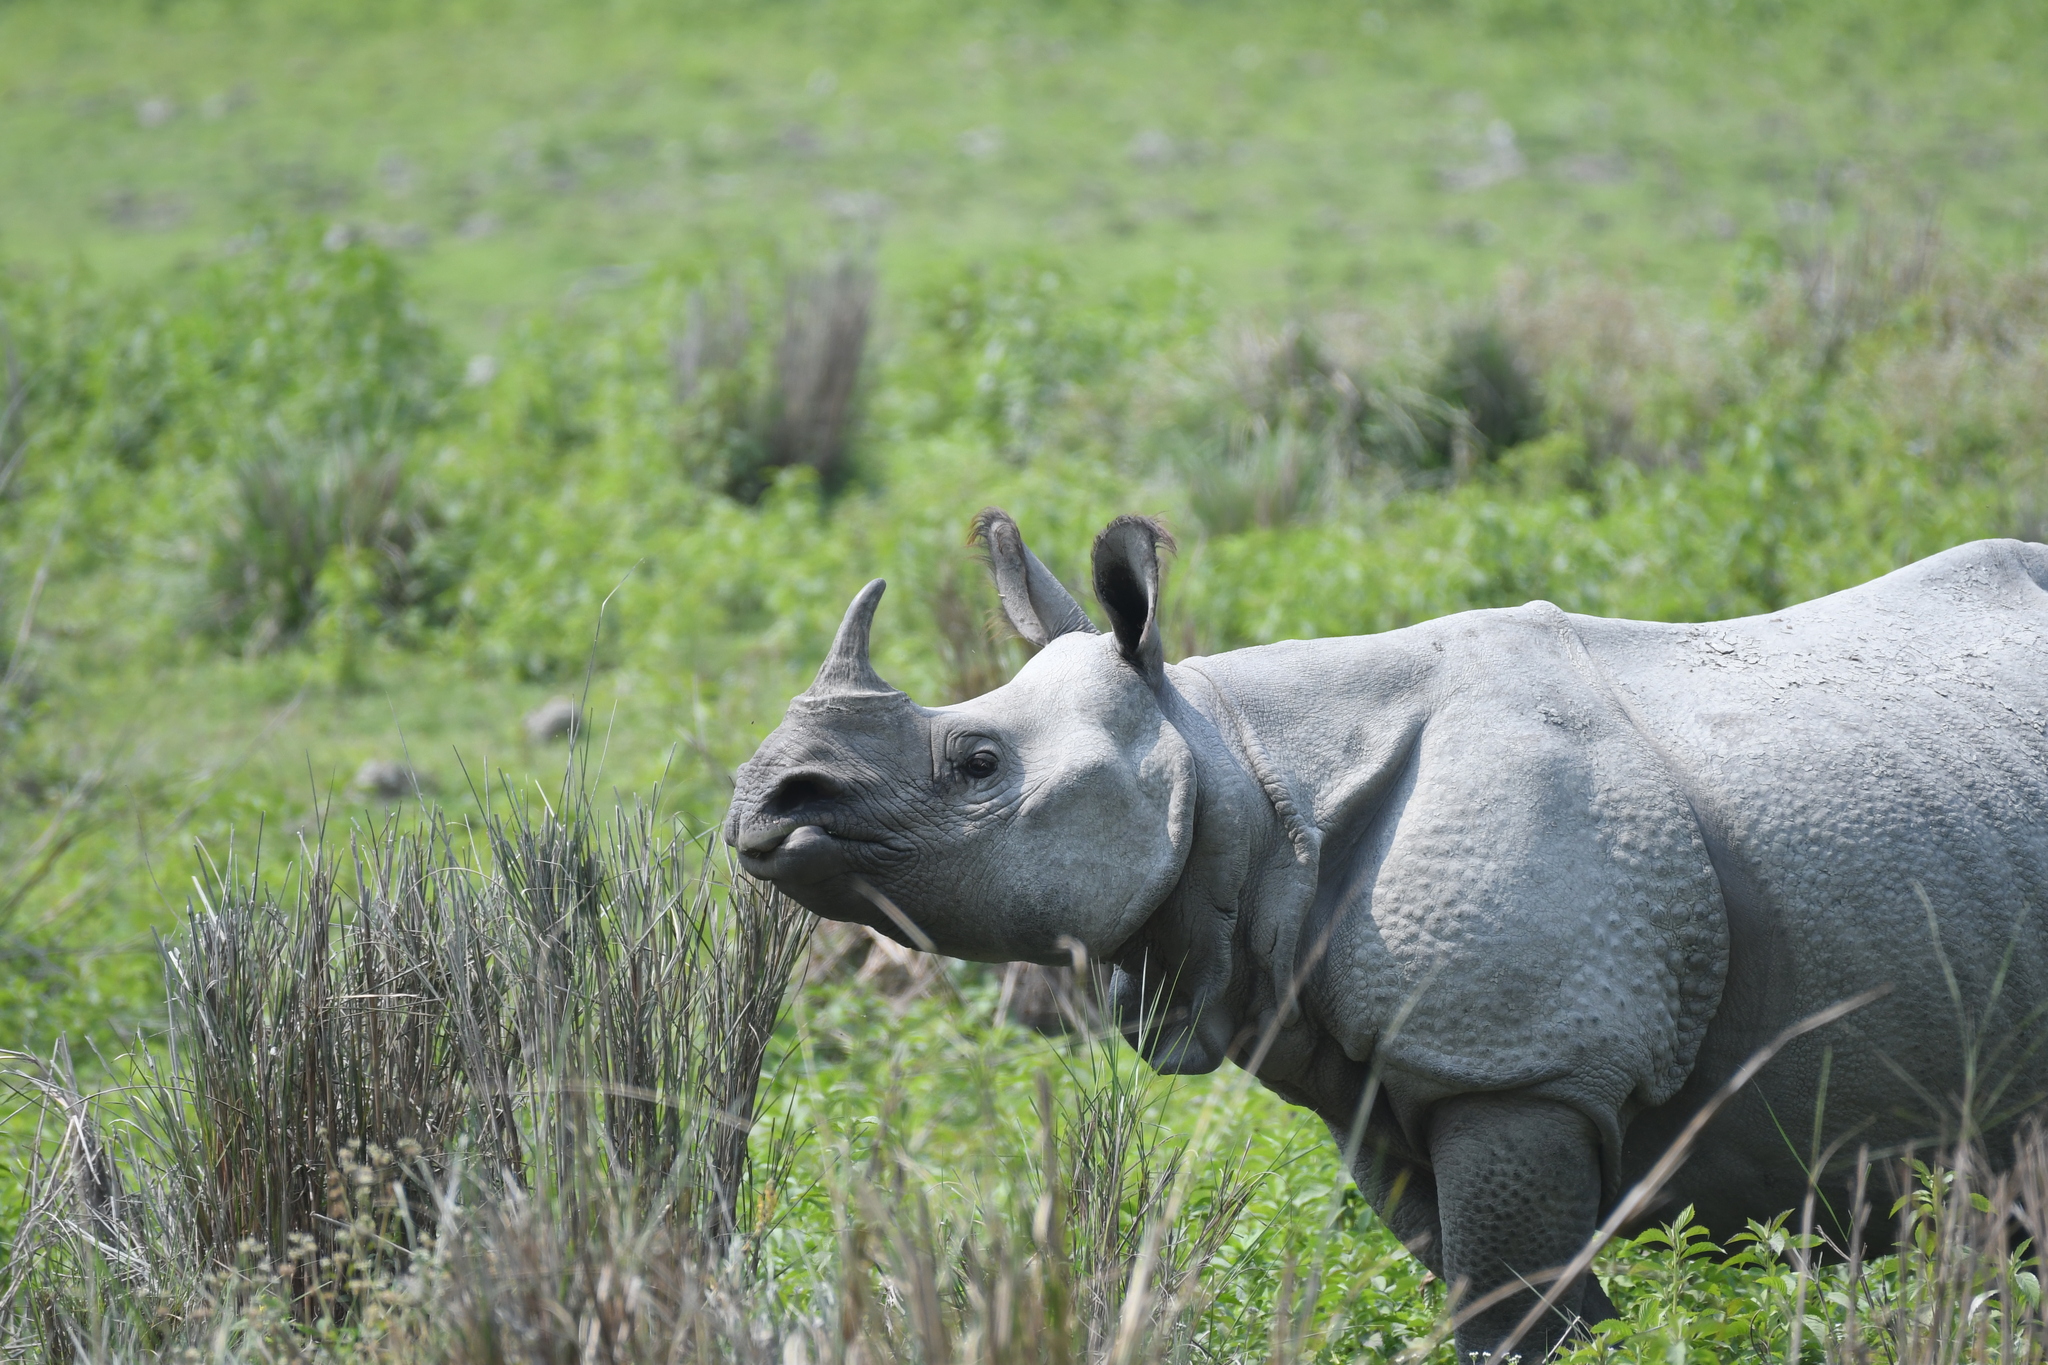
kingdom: Animalia
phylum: Chordata
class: Mammalia
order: Perissodactyla
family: Rhinocerotidae
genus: Rhinoceros
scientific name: Rhinoceros unicornis
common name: Indian rhinoceros
